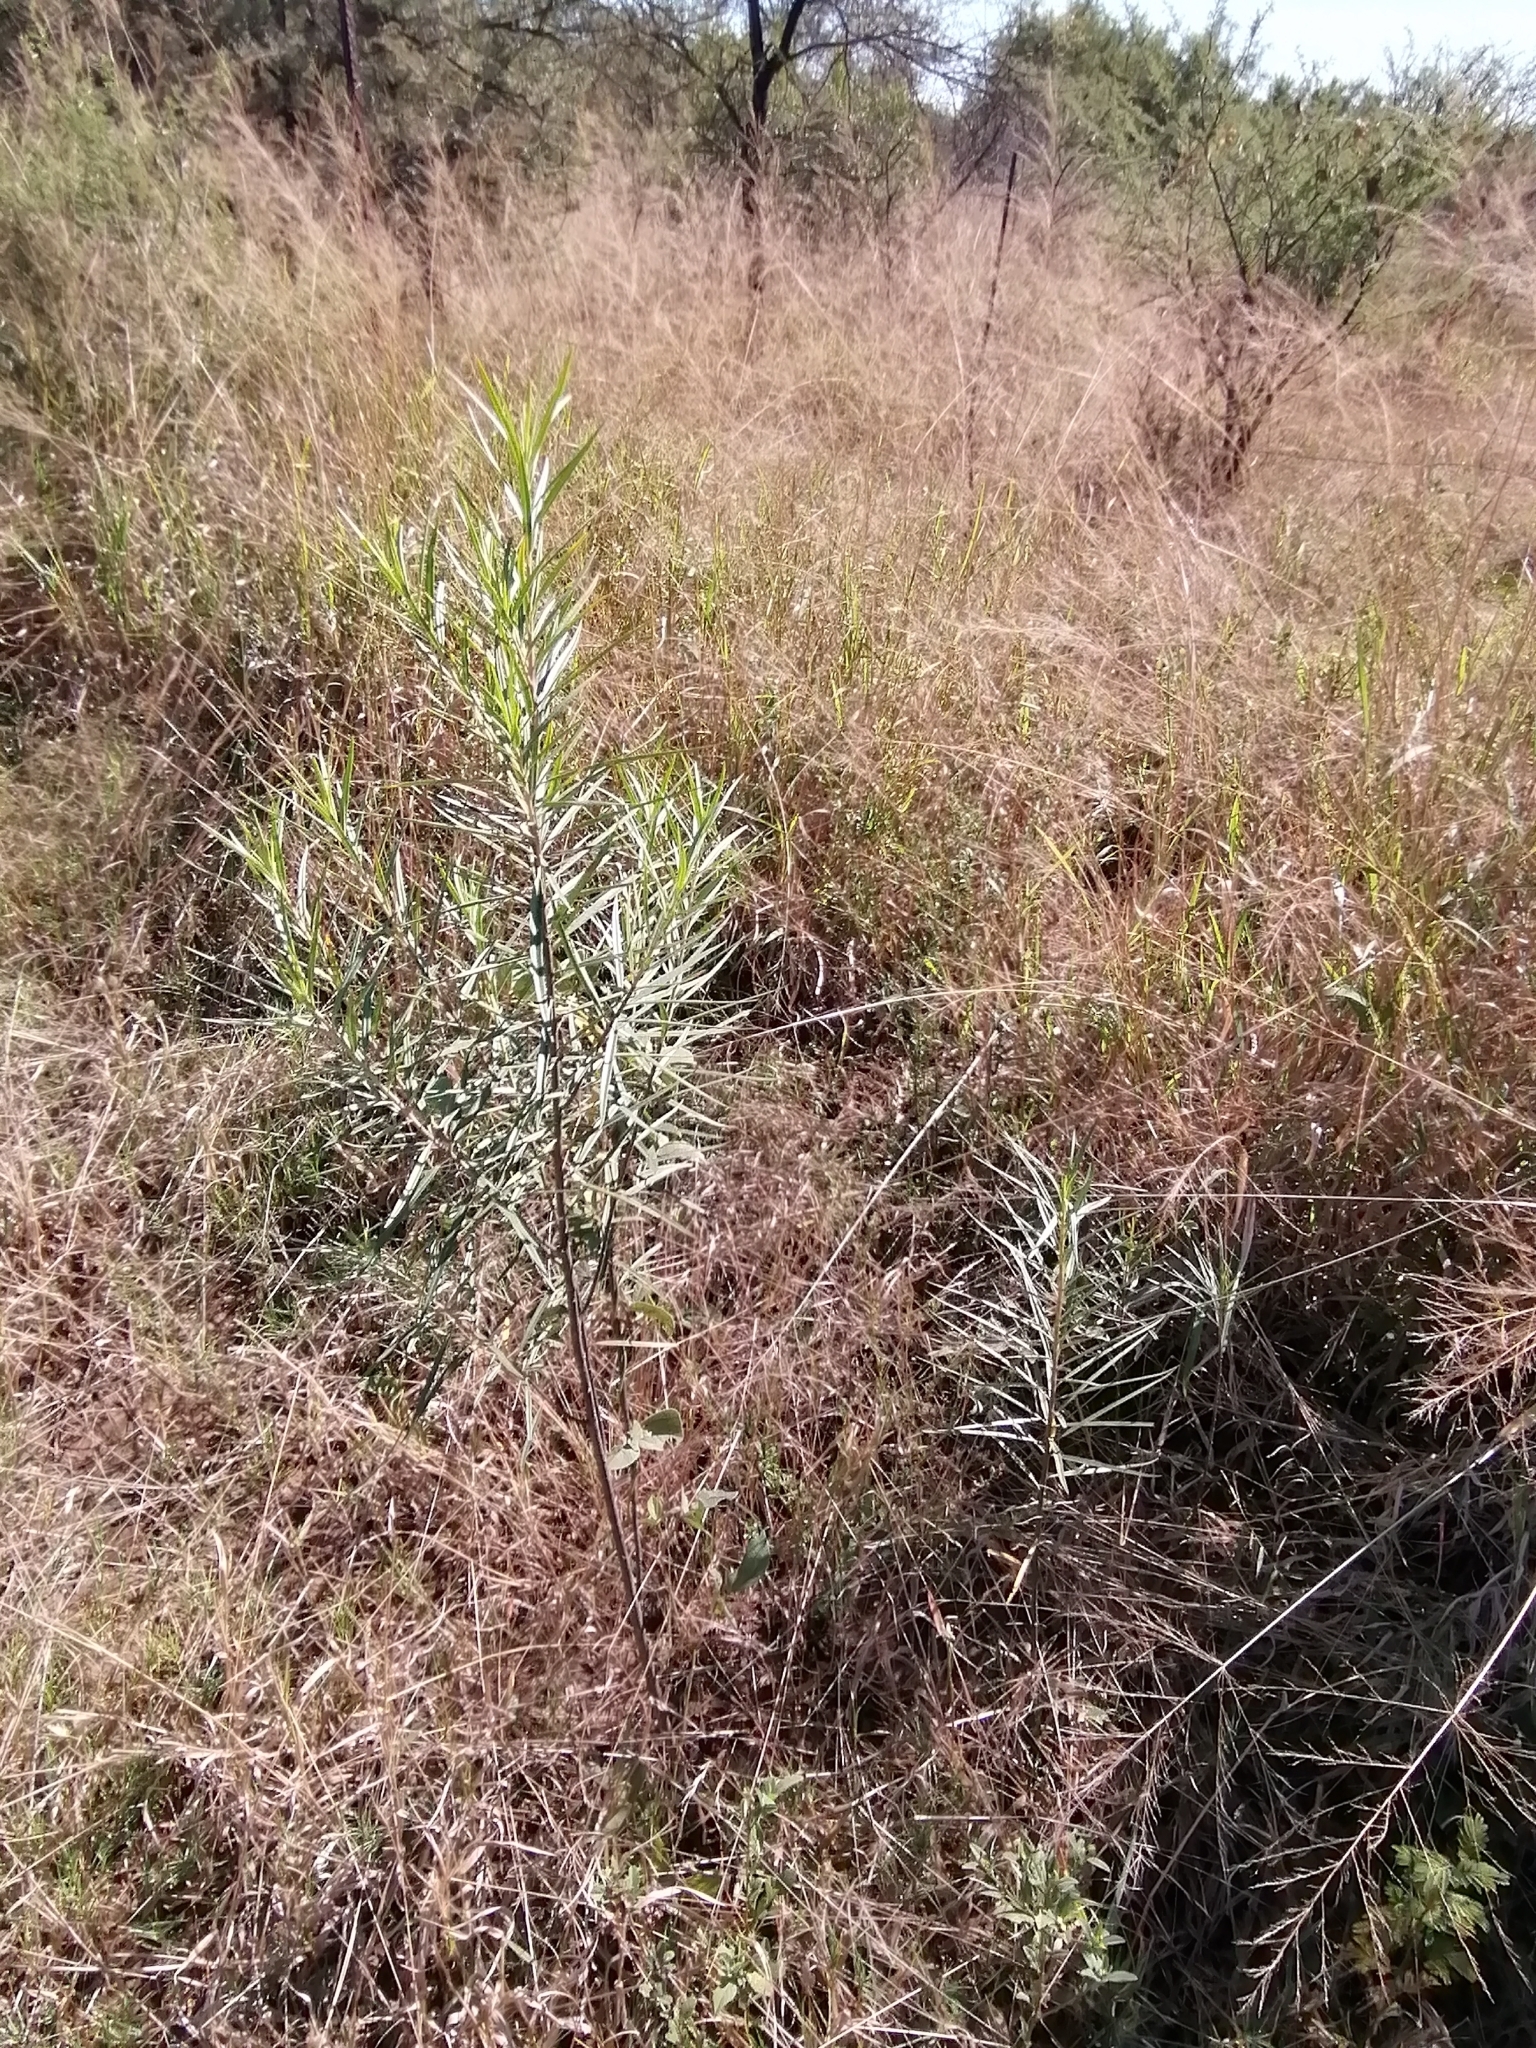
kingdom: Plantae
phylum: Tracheophyta
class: Magnoliopsida
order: Gentianales
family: Apocynaceae
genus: Gomphocarpus
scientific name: Gomphocarpus fruticosus
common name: Milkweed
